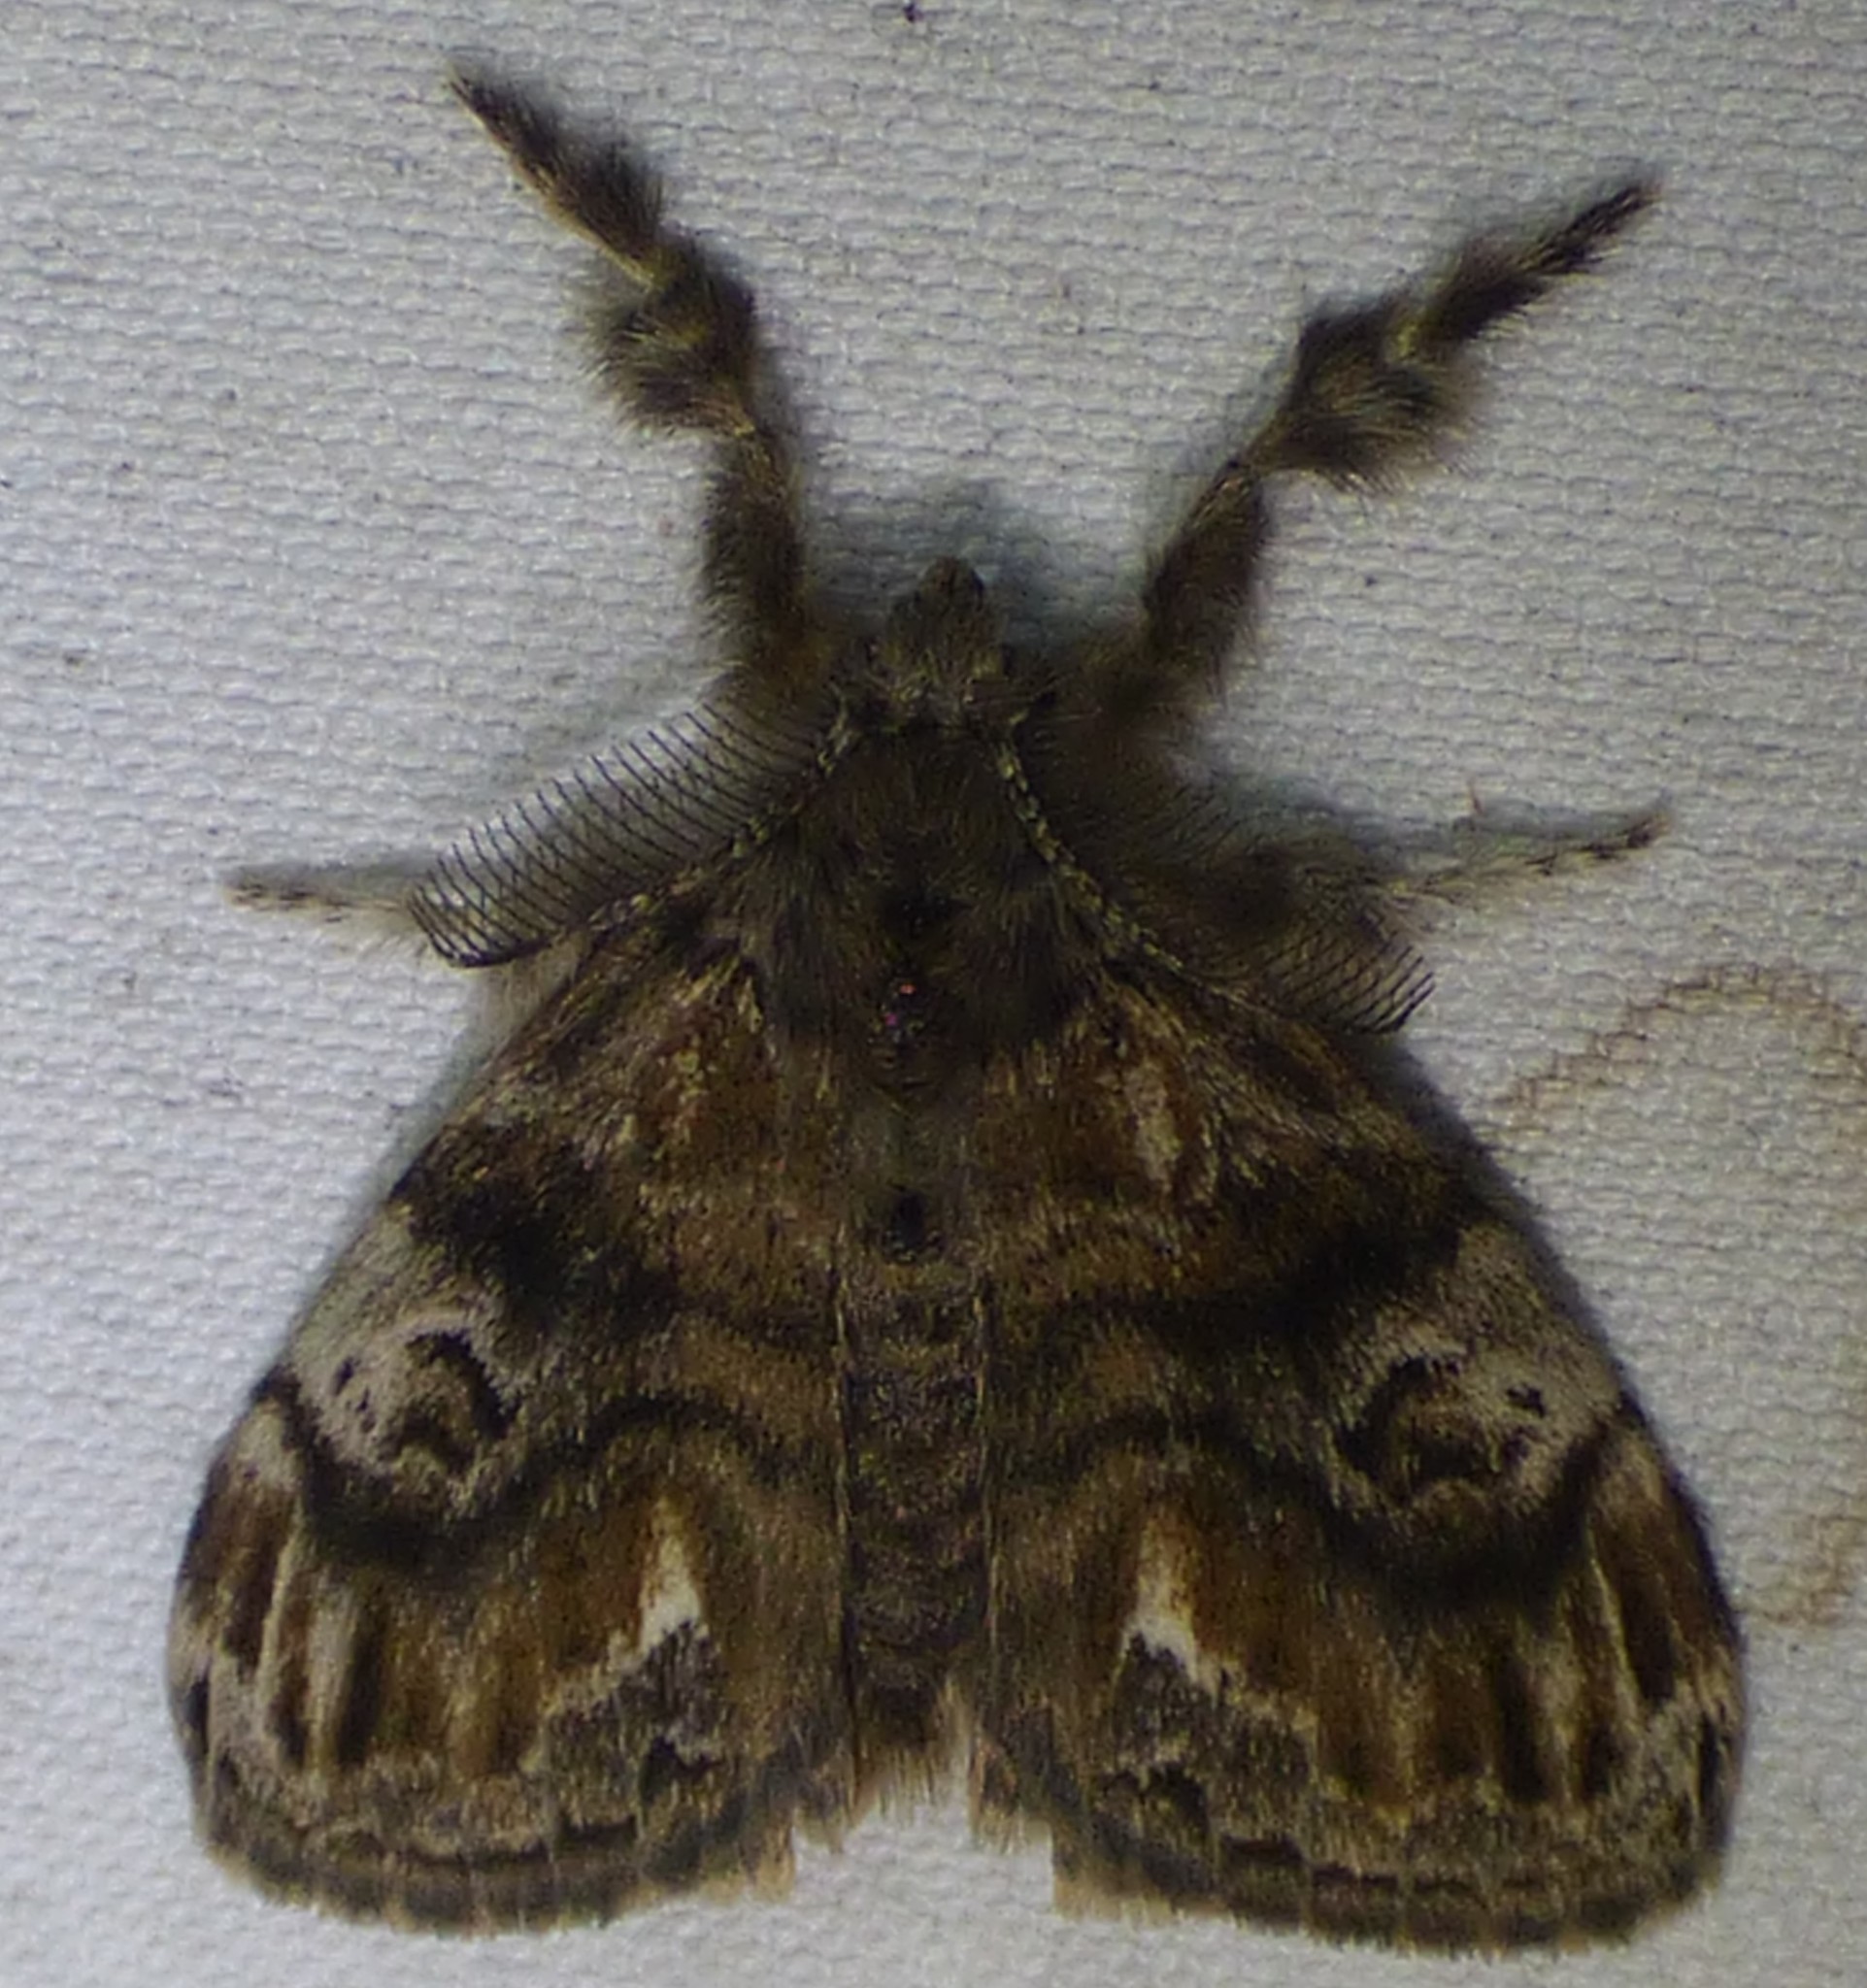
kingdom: Animalia
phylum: Arthropoda
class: Insecta
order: Lepidoptera
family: Erebidae
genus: Orgyia
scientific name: Orgyia definita
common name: Definite tussock moth
